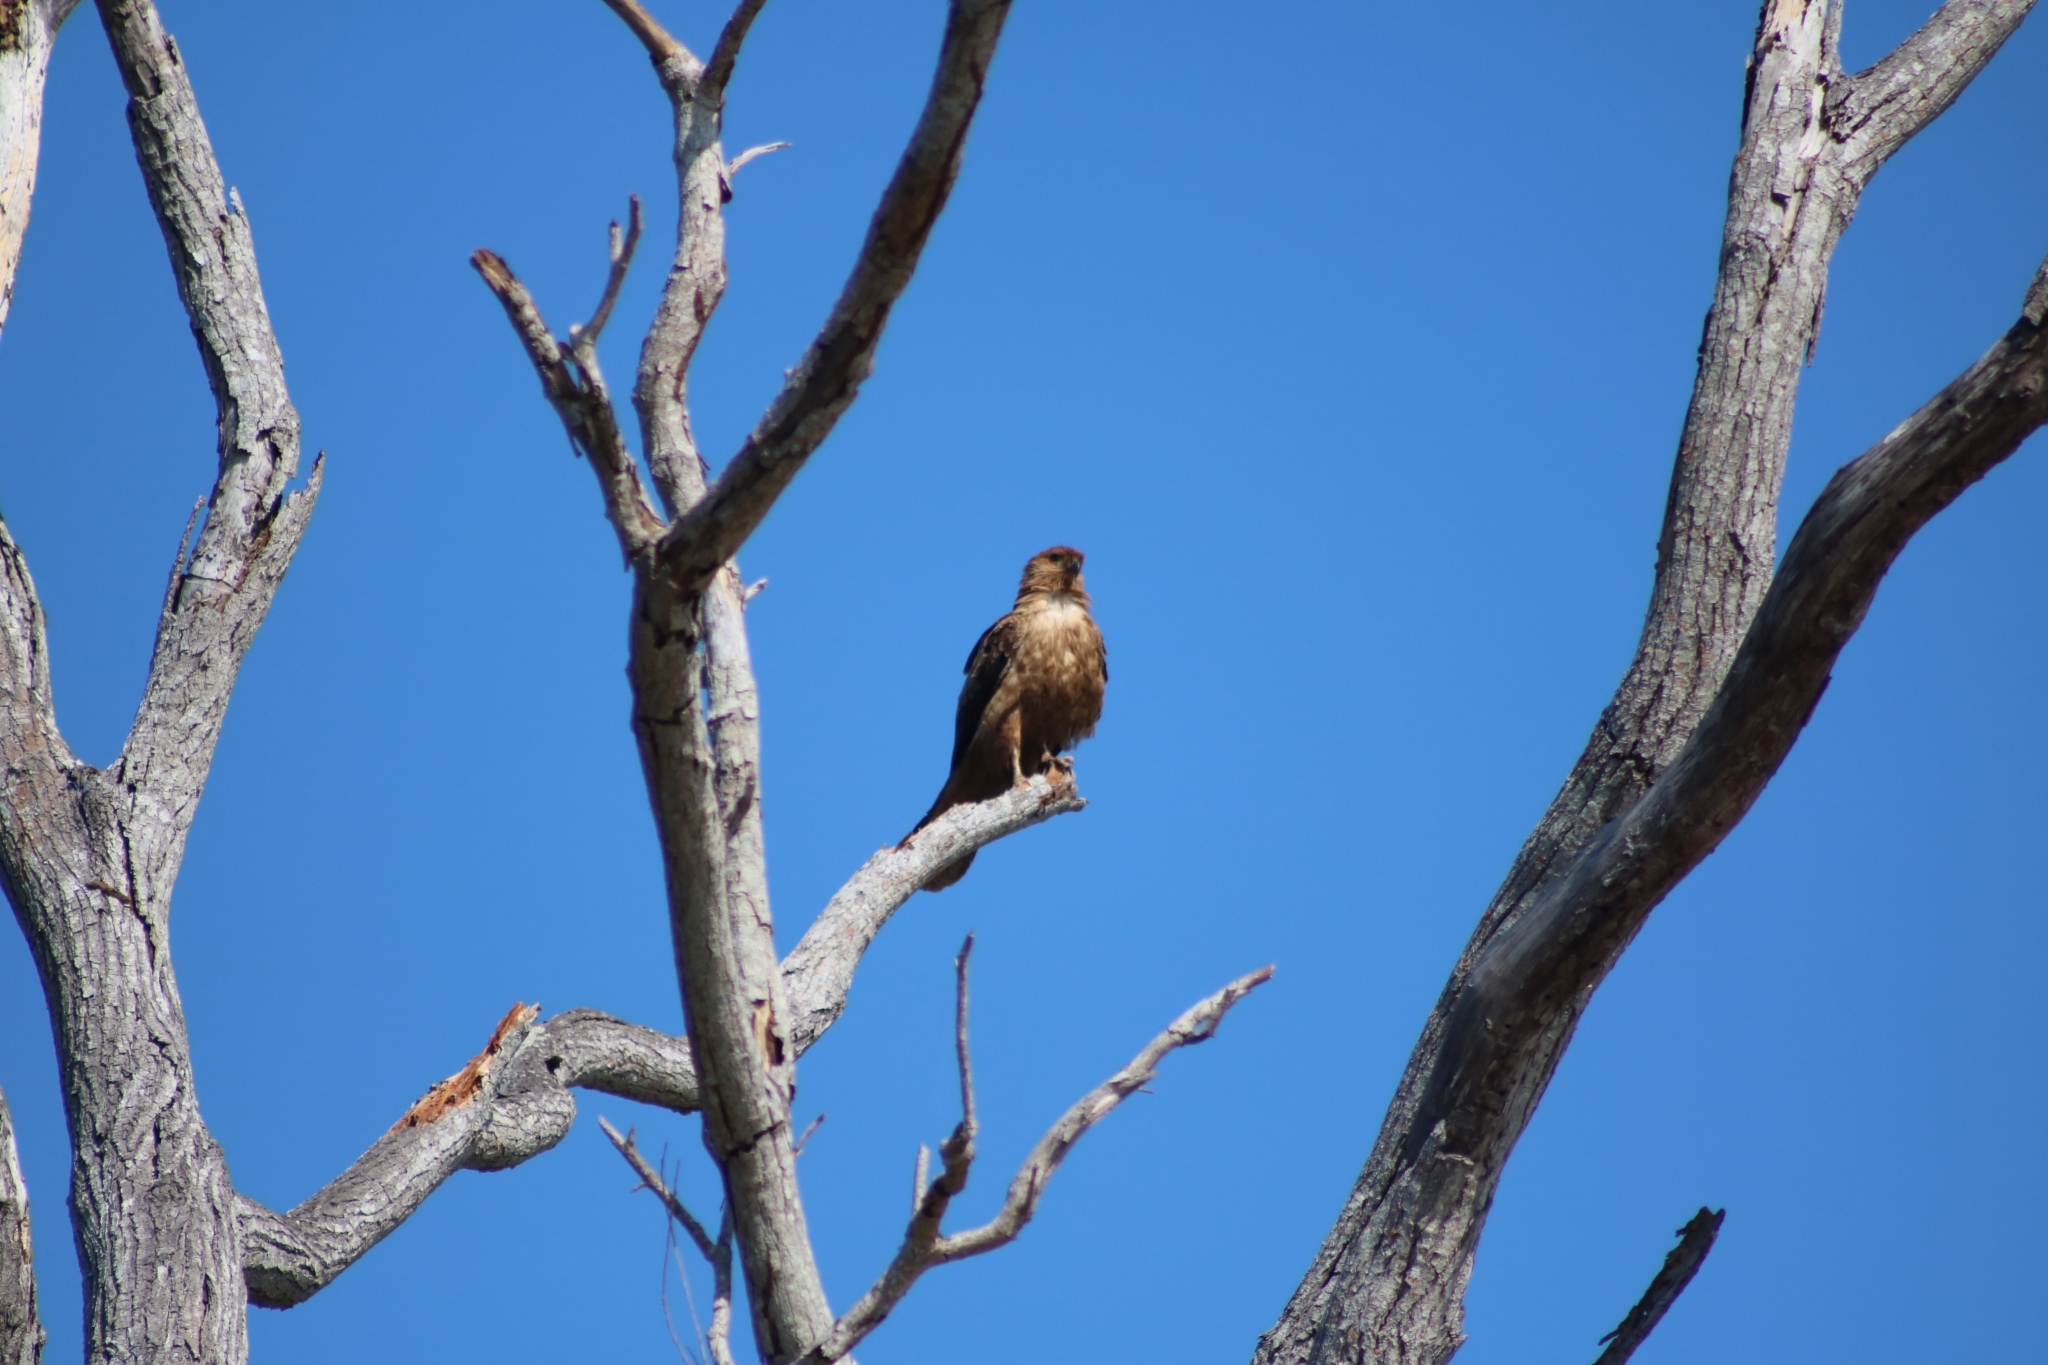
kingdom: Animalia
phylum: Chordata
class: Aves
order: Accipitriformes
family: Accipitridae
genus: Haliastur
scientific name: Haliastur sphenurus
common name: Whistling kite
